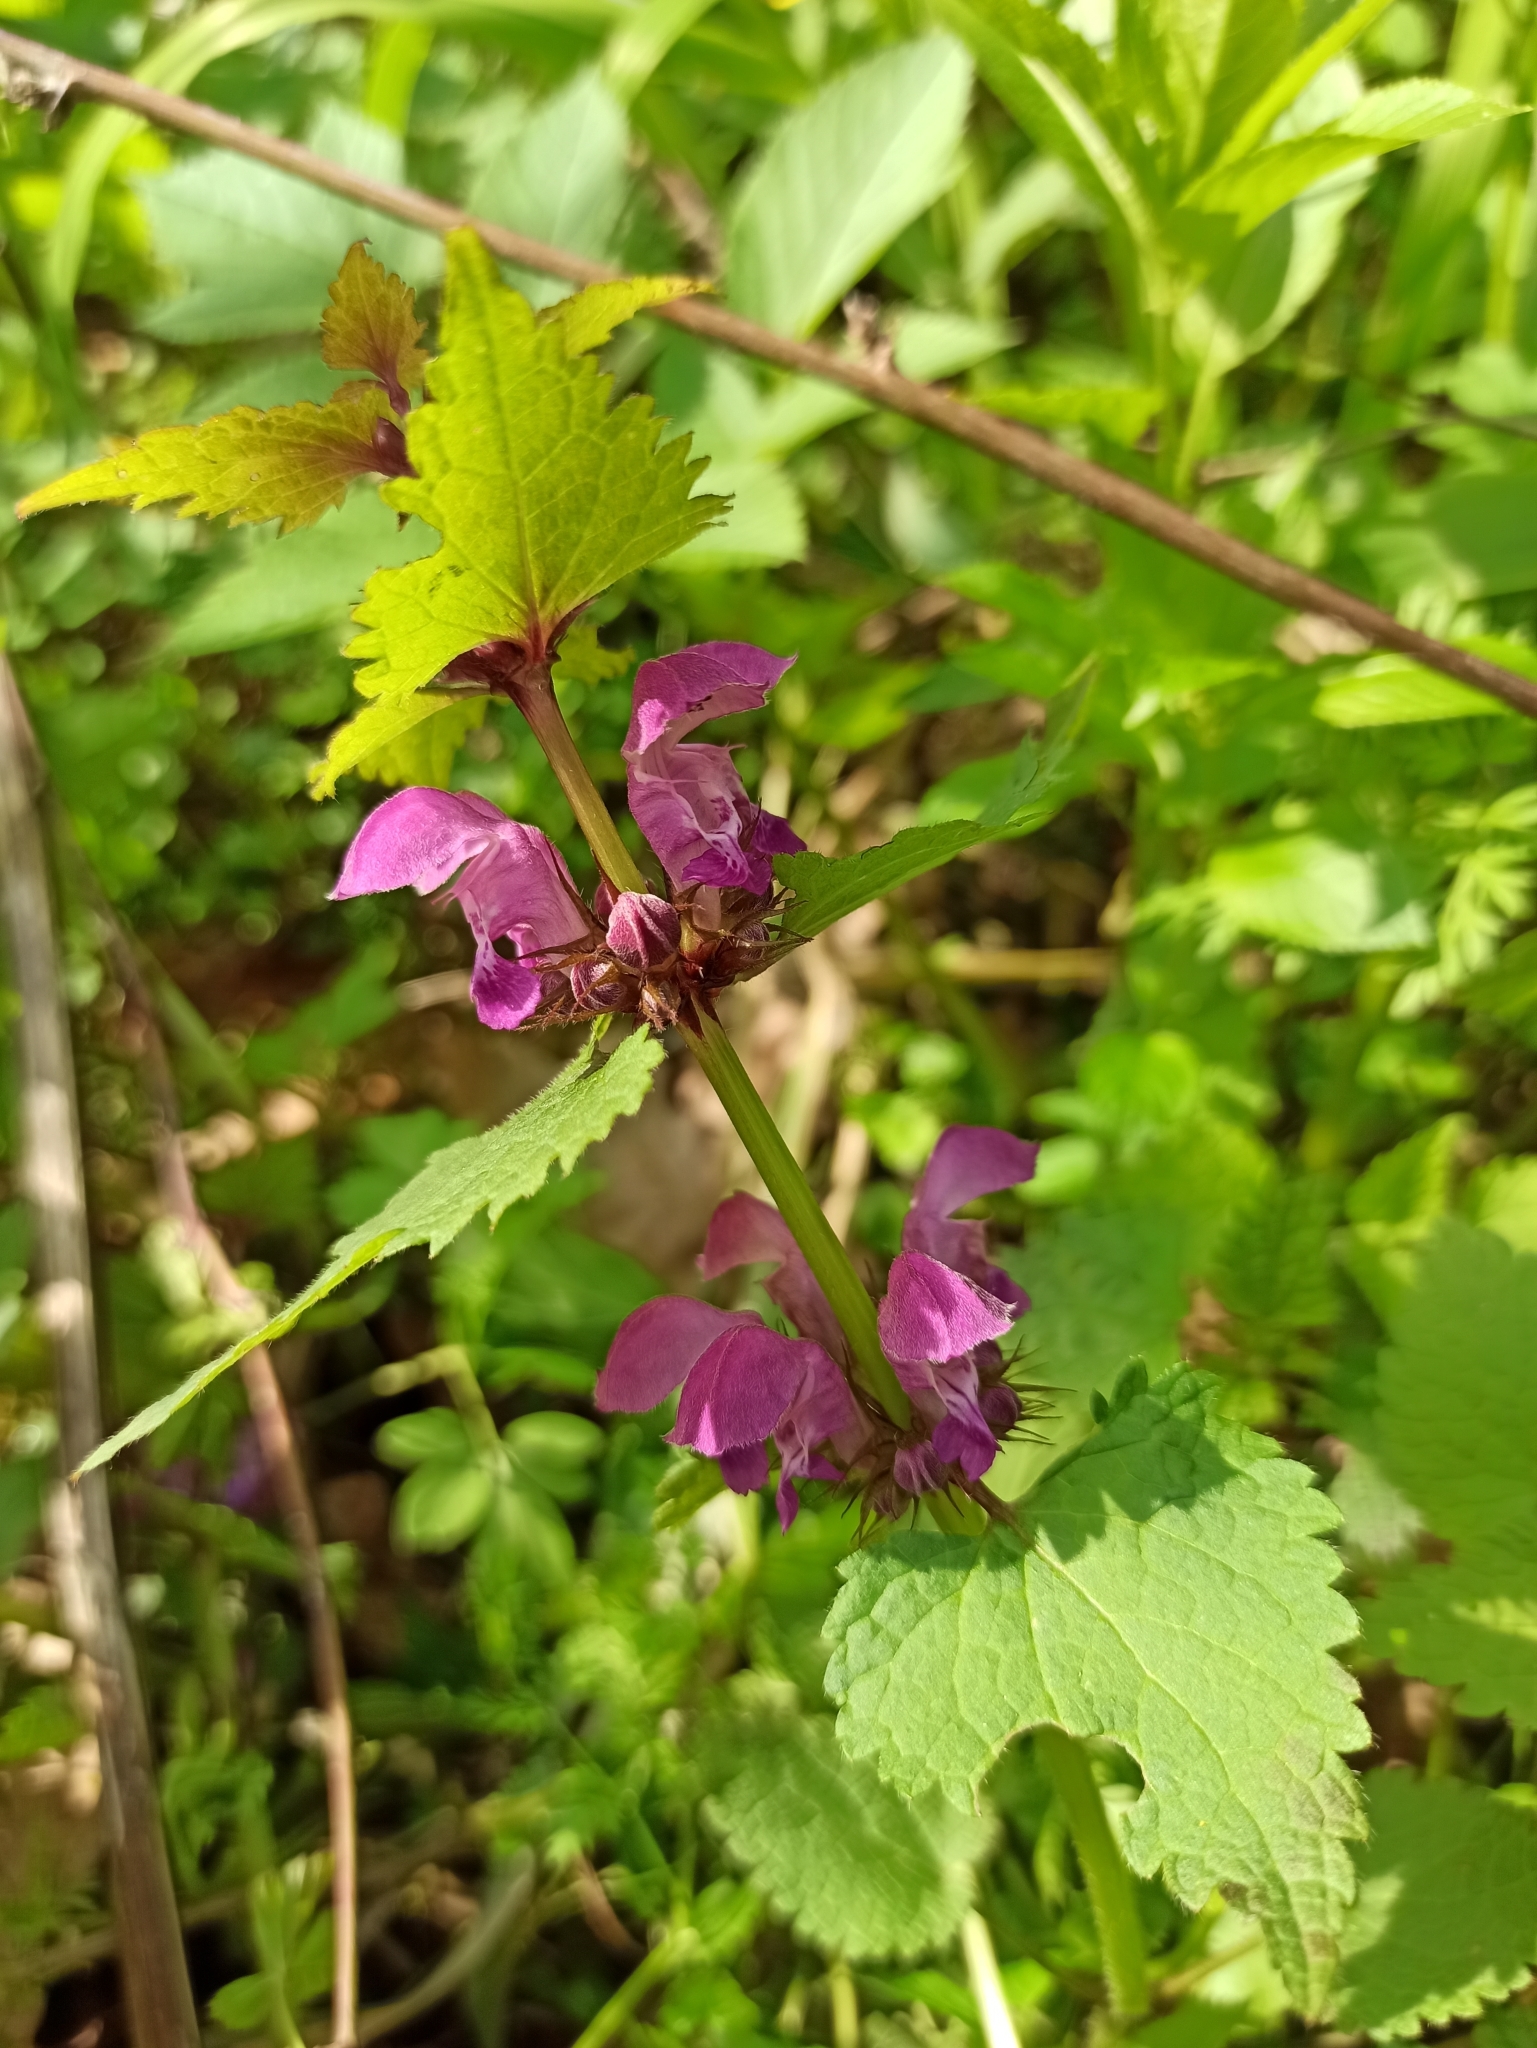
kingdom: Plantae
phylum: Tracheophyta
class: Magnoliopsida
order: Lamiales
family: Lamiaceae
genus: Lamium
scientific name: Lamium maculatum
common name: Spotted dead-nettle
